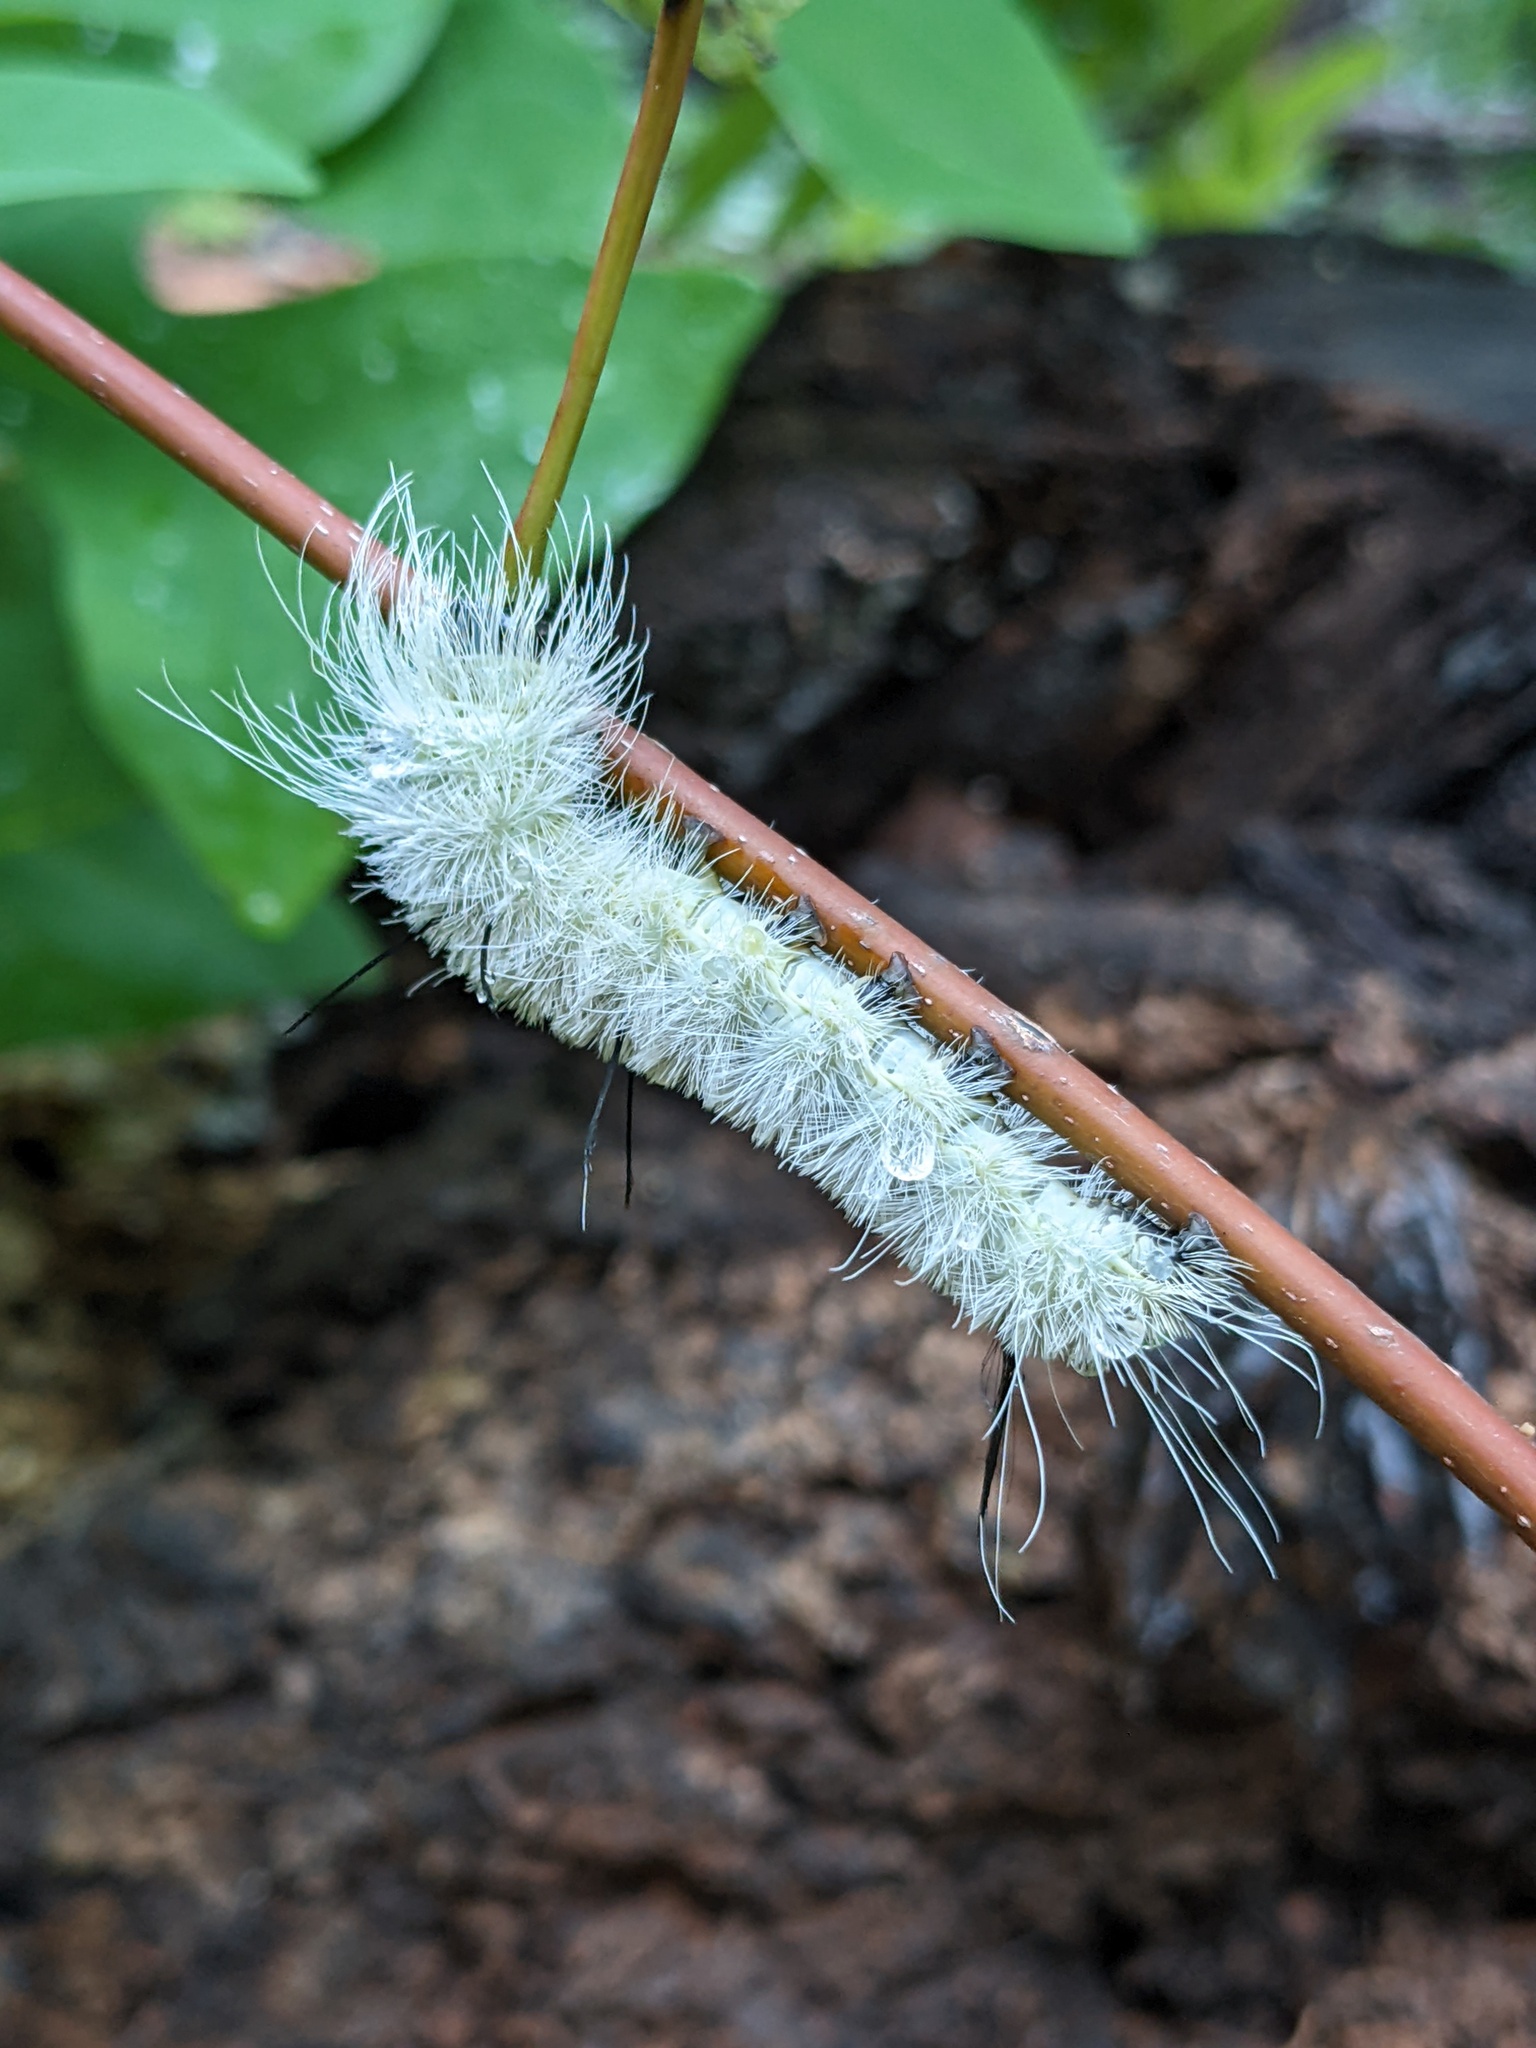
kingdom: Animalia
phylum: Arthropoda
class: Insecta
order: Lepidoptera
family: Noctuidae
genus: Acronicta
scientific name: Acronicta americana
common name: American dagger
